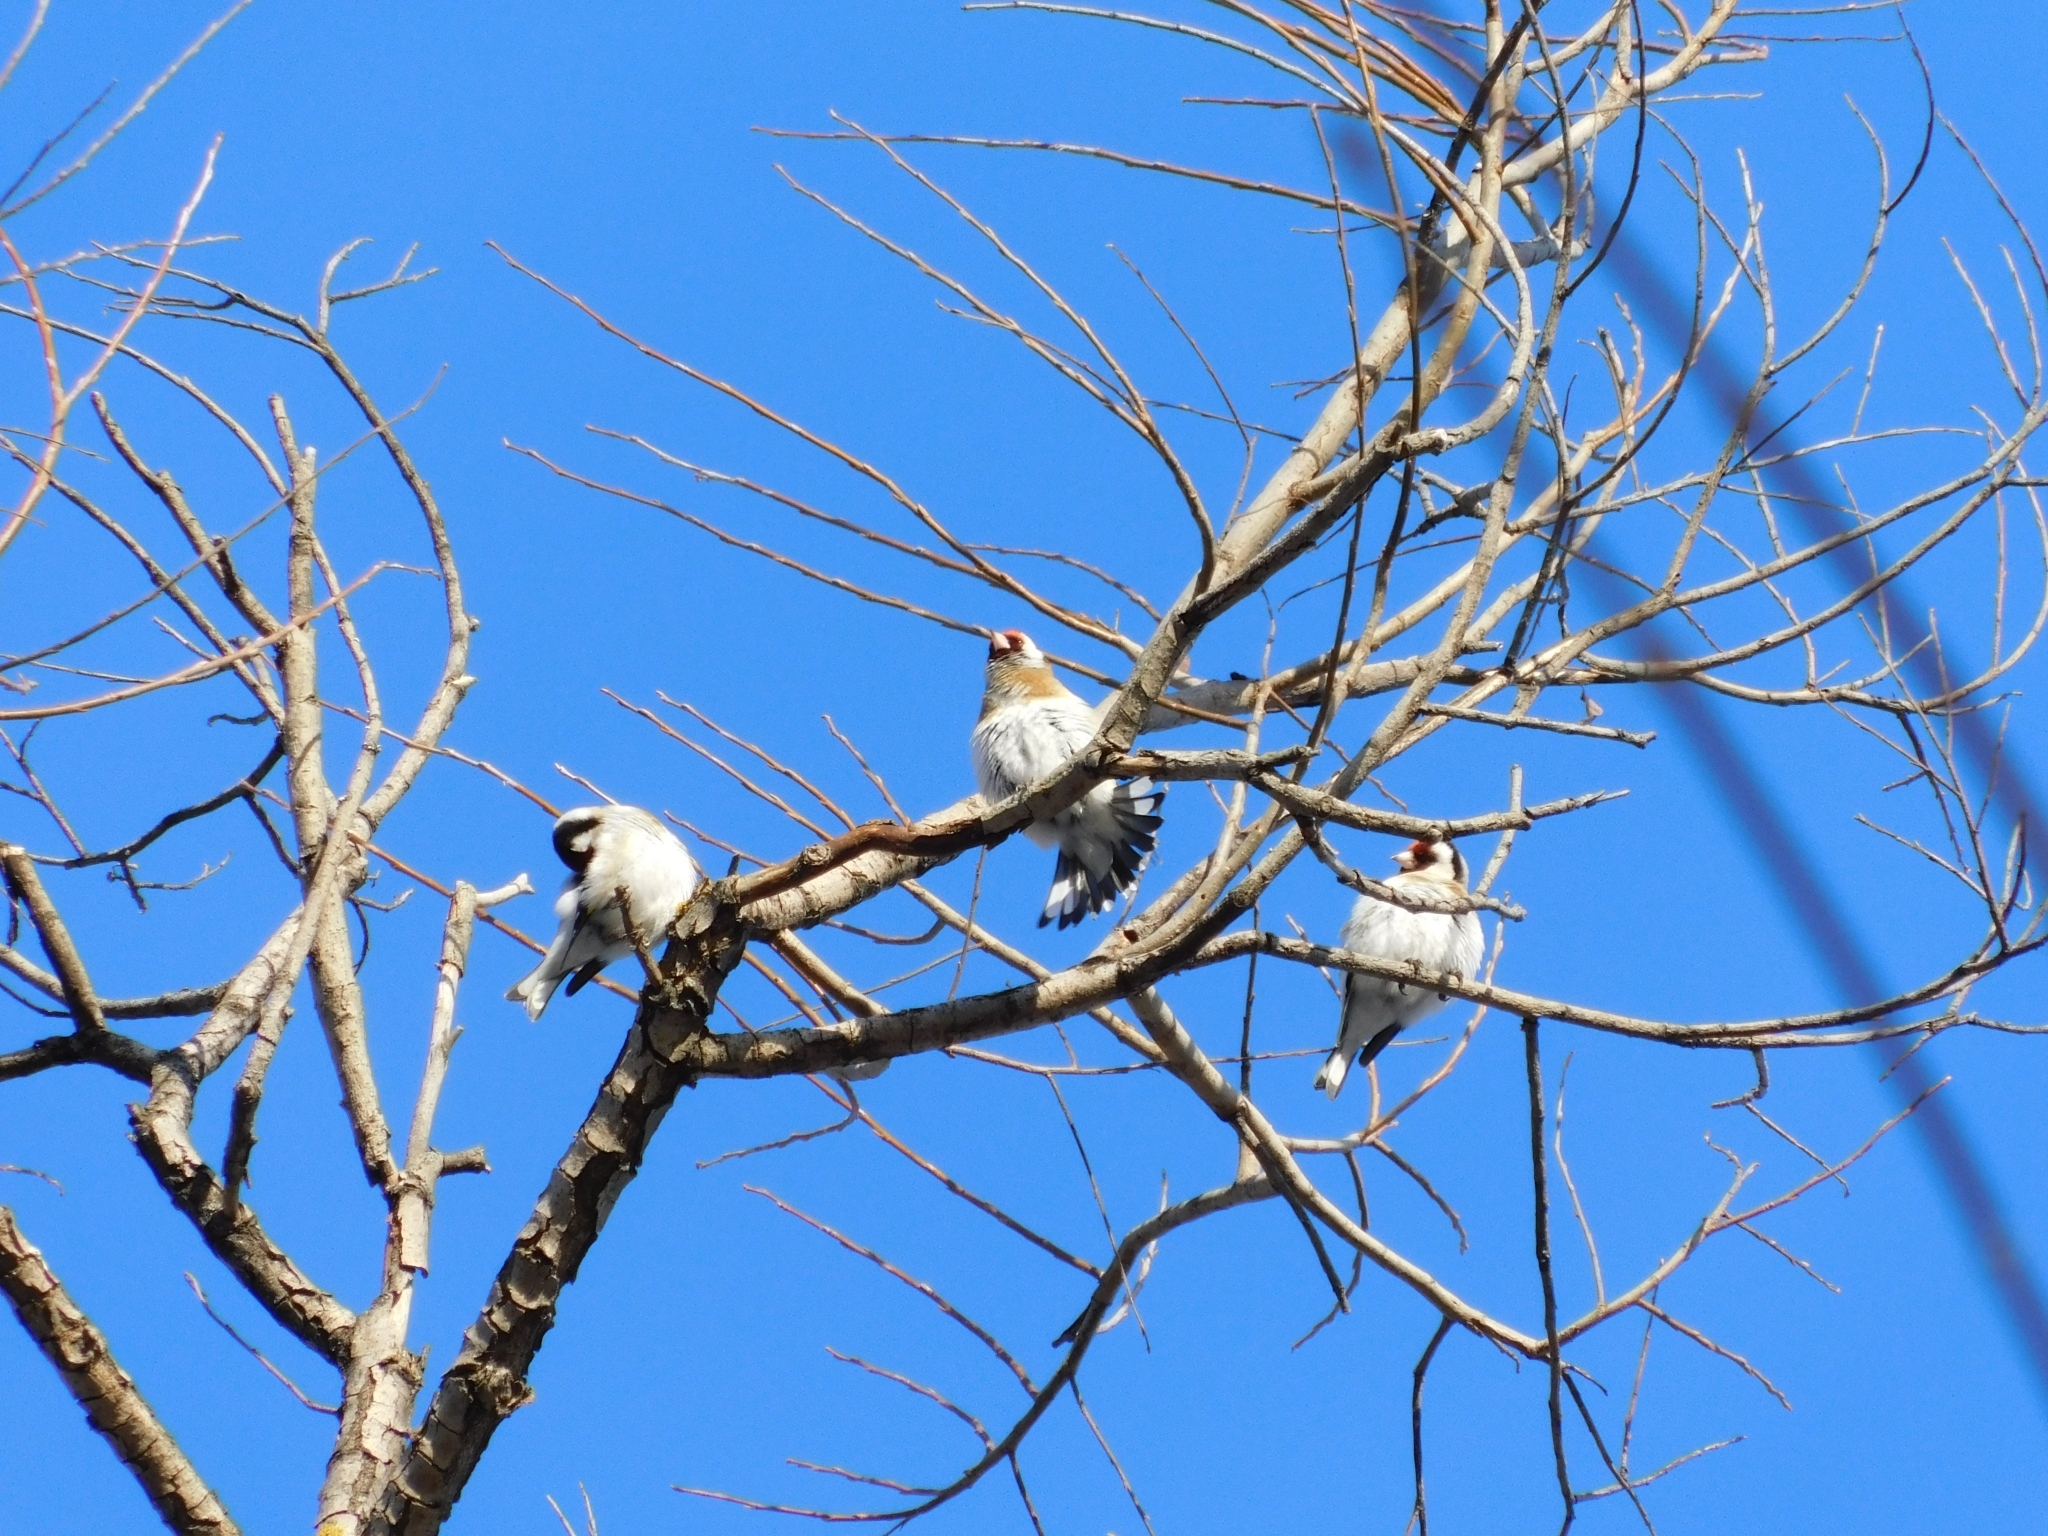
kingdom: Animalia
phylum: Chordata
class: Aves
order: Passeriformes
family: Fringillidae
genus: Carduelis
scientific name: Carduelis carduelis
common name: European goldfinch
